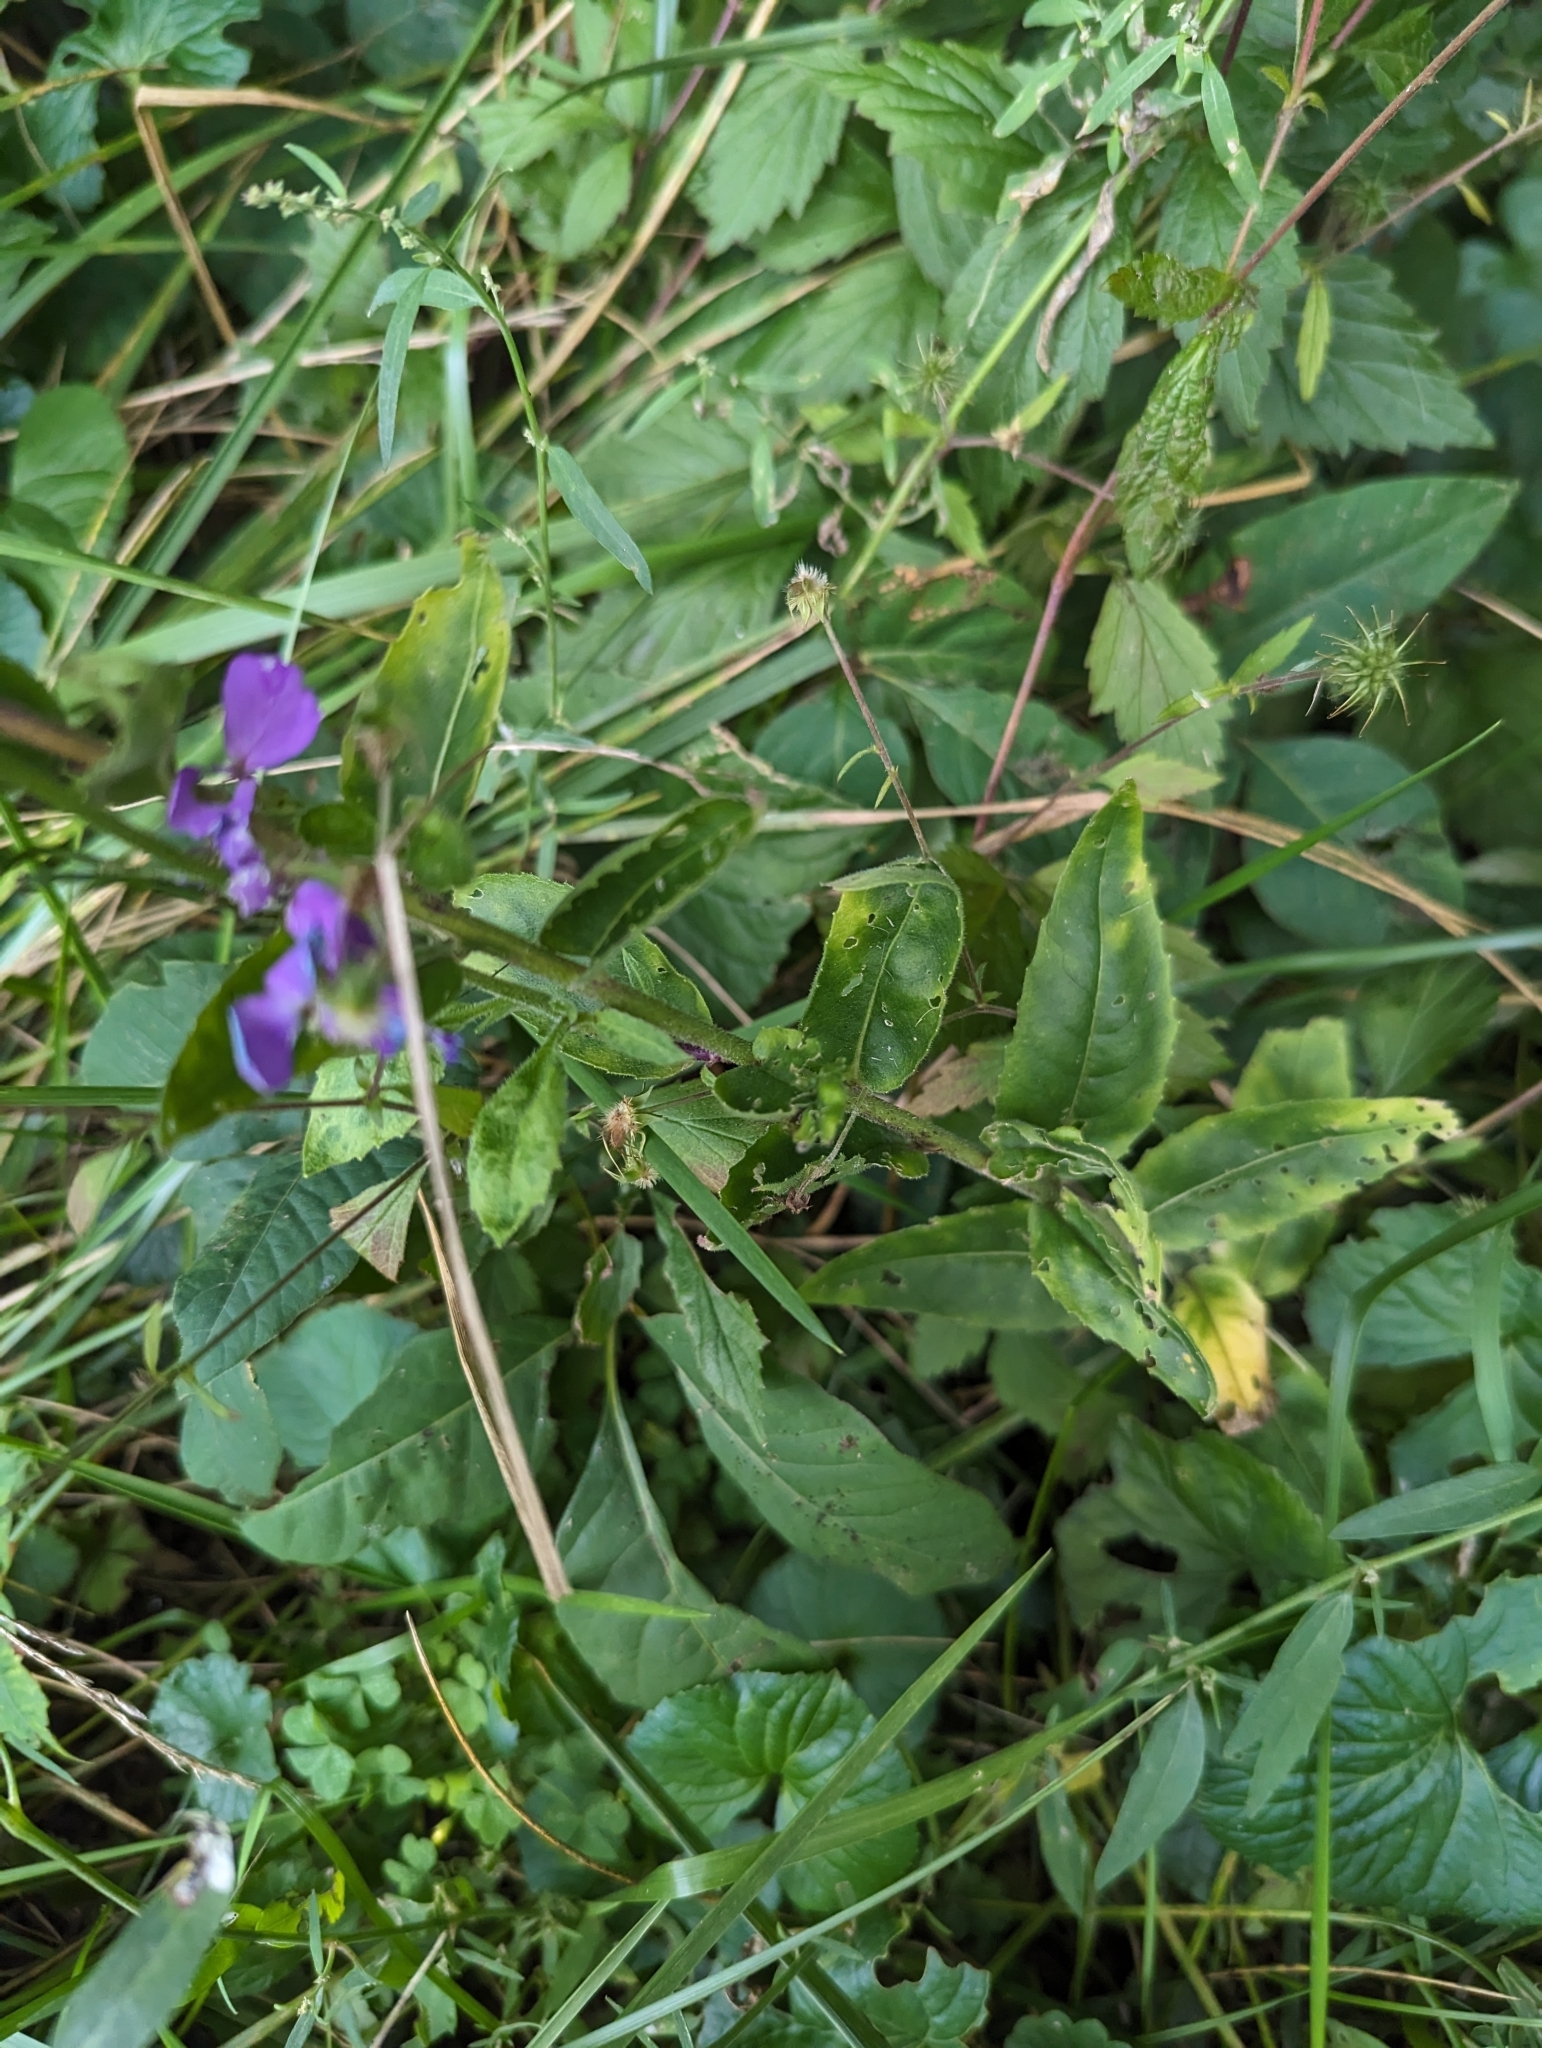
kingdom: Plantae
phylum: Tracheophyta
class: Magnoliopsida
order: Brassicales
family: Brassicaceae
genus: Hesperis
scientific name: Hesperis matronalis
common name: Dame's-violet
